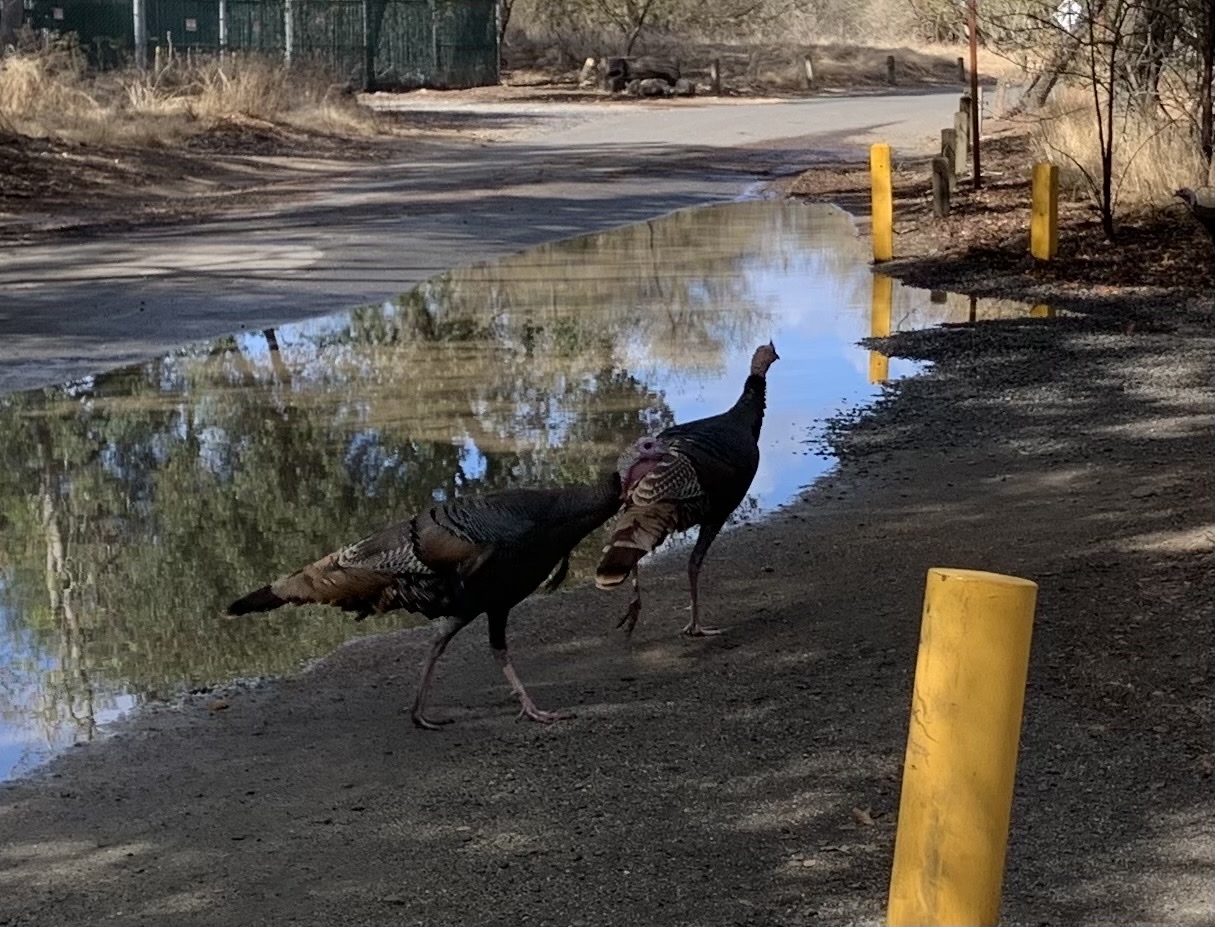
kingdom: Animalia
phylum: Chordata
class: Aves
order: Galliformes
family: Phasianidae
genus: Meleagris
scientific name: Meleagris gallopavo
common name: Wild turkey
